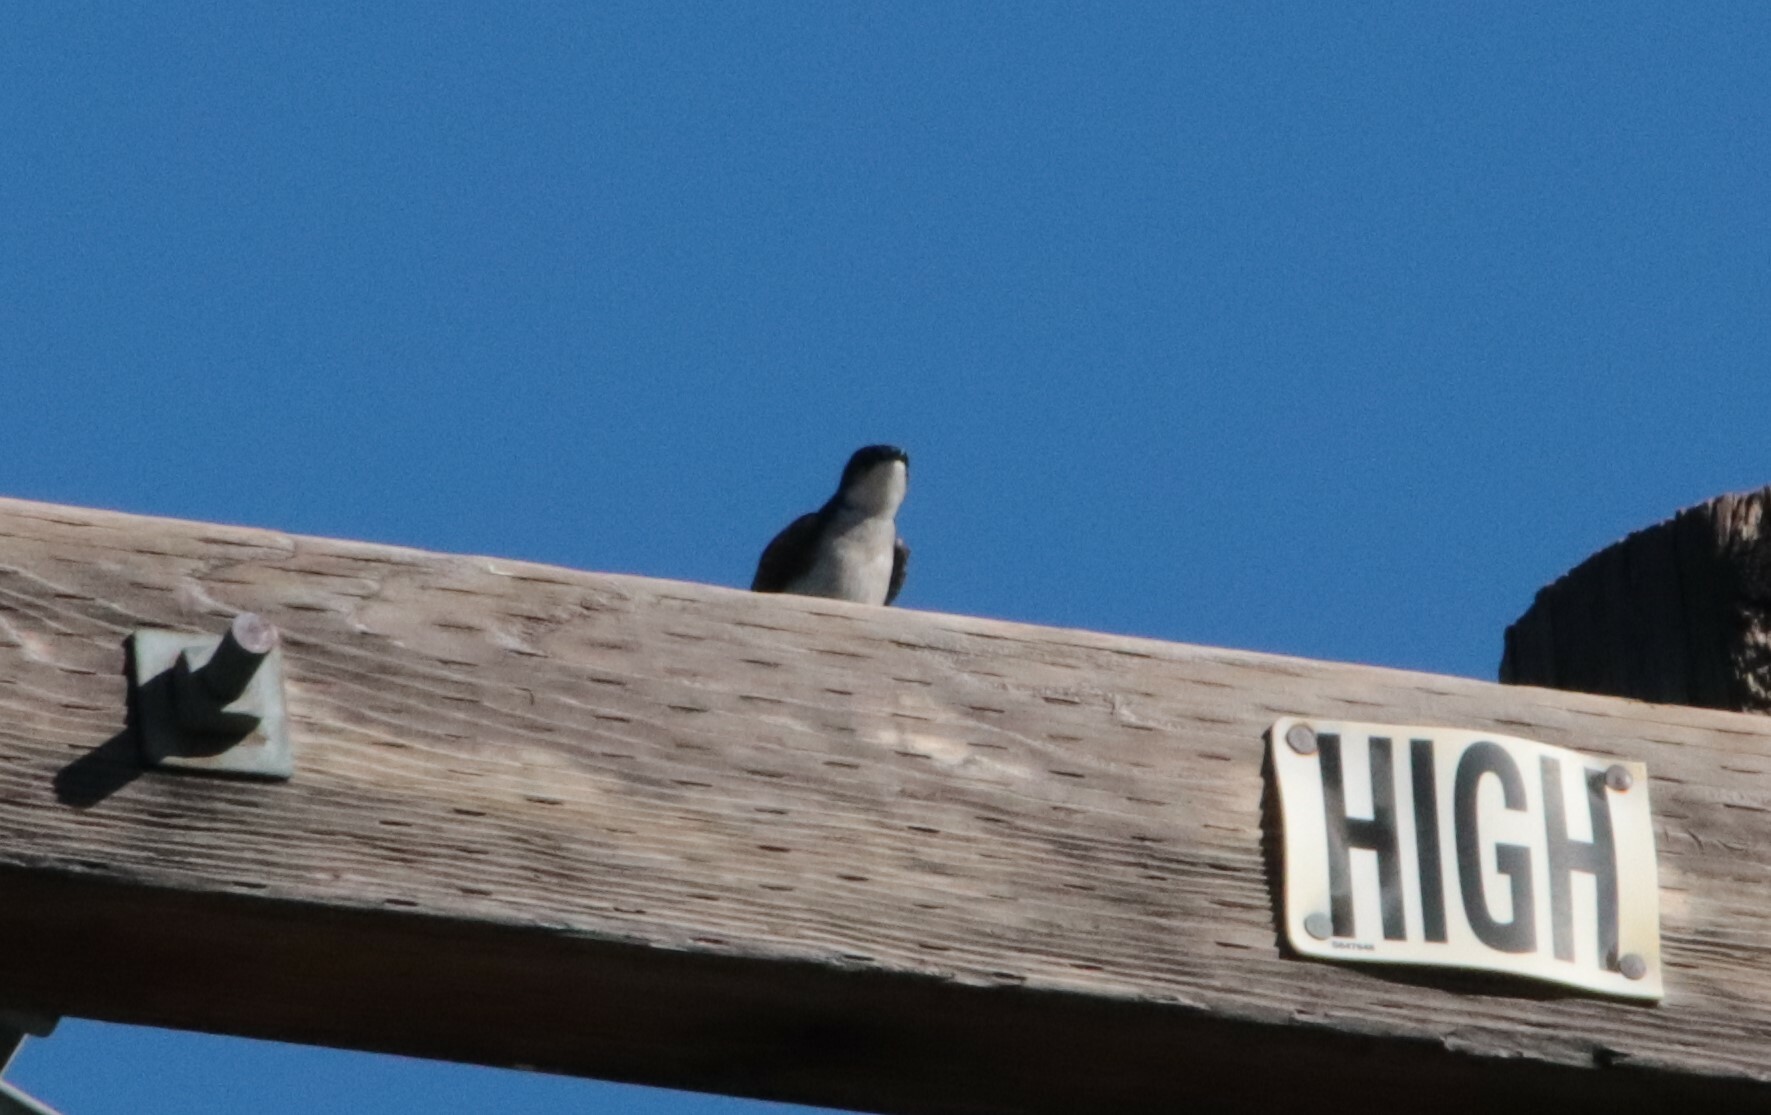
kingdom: Animalia
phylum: Chordata
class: Aves
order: Passeriformes
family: Hirundinidae
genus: Tachycineta
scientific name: Tachycineta bicolor
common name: Tree swallow
